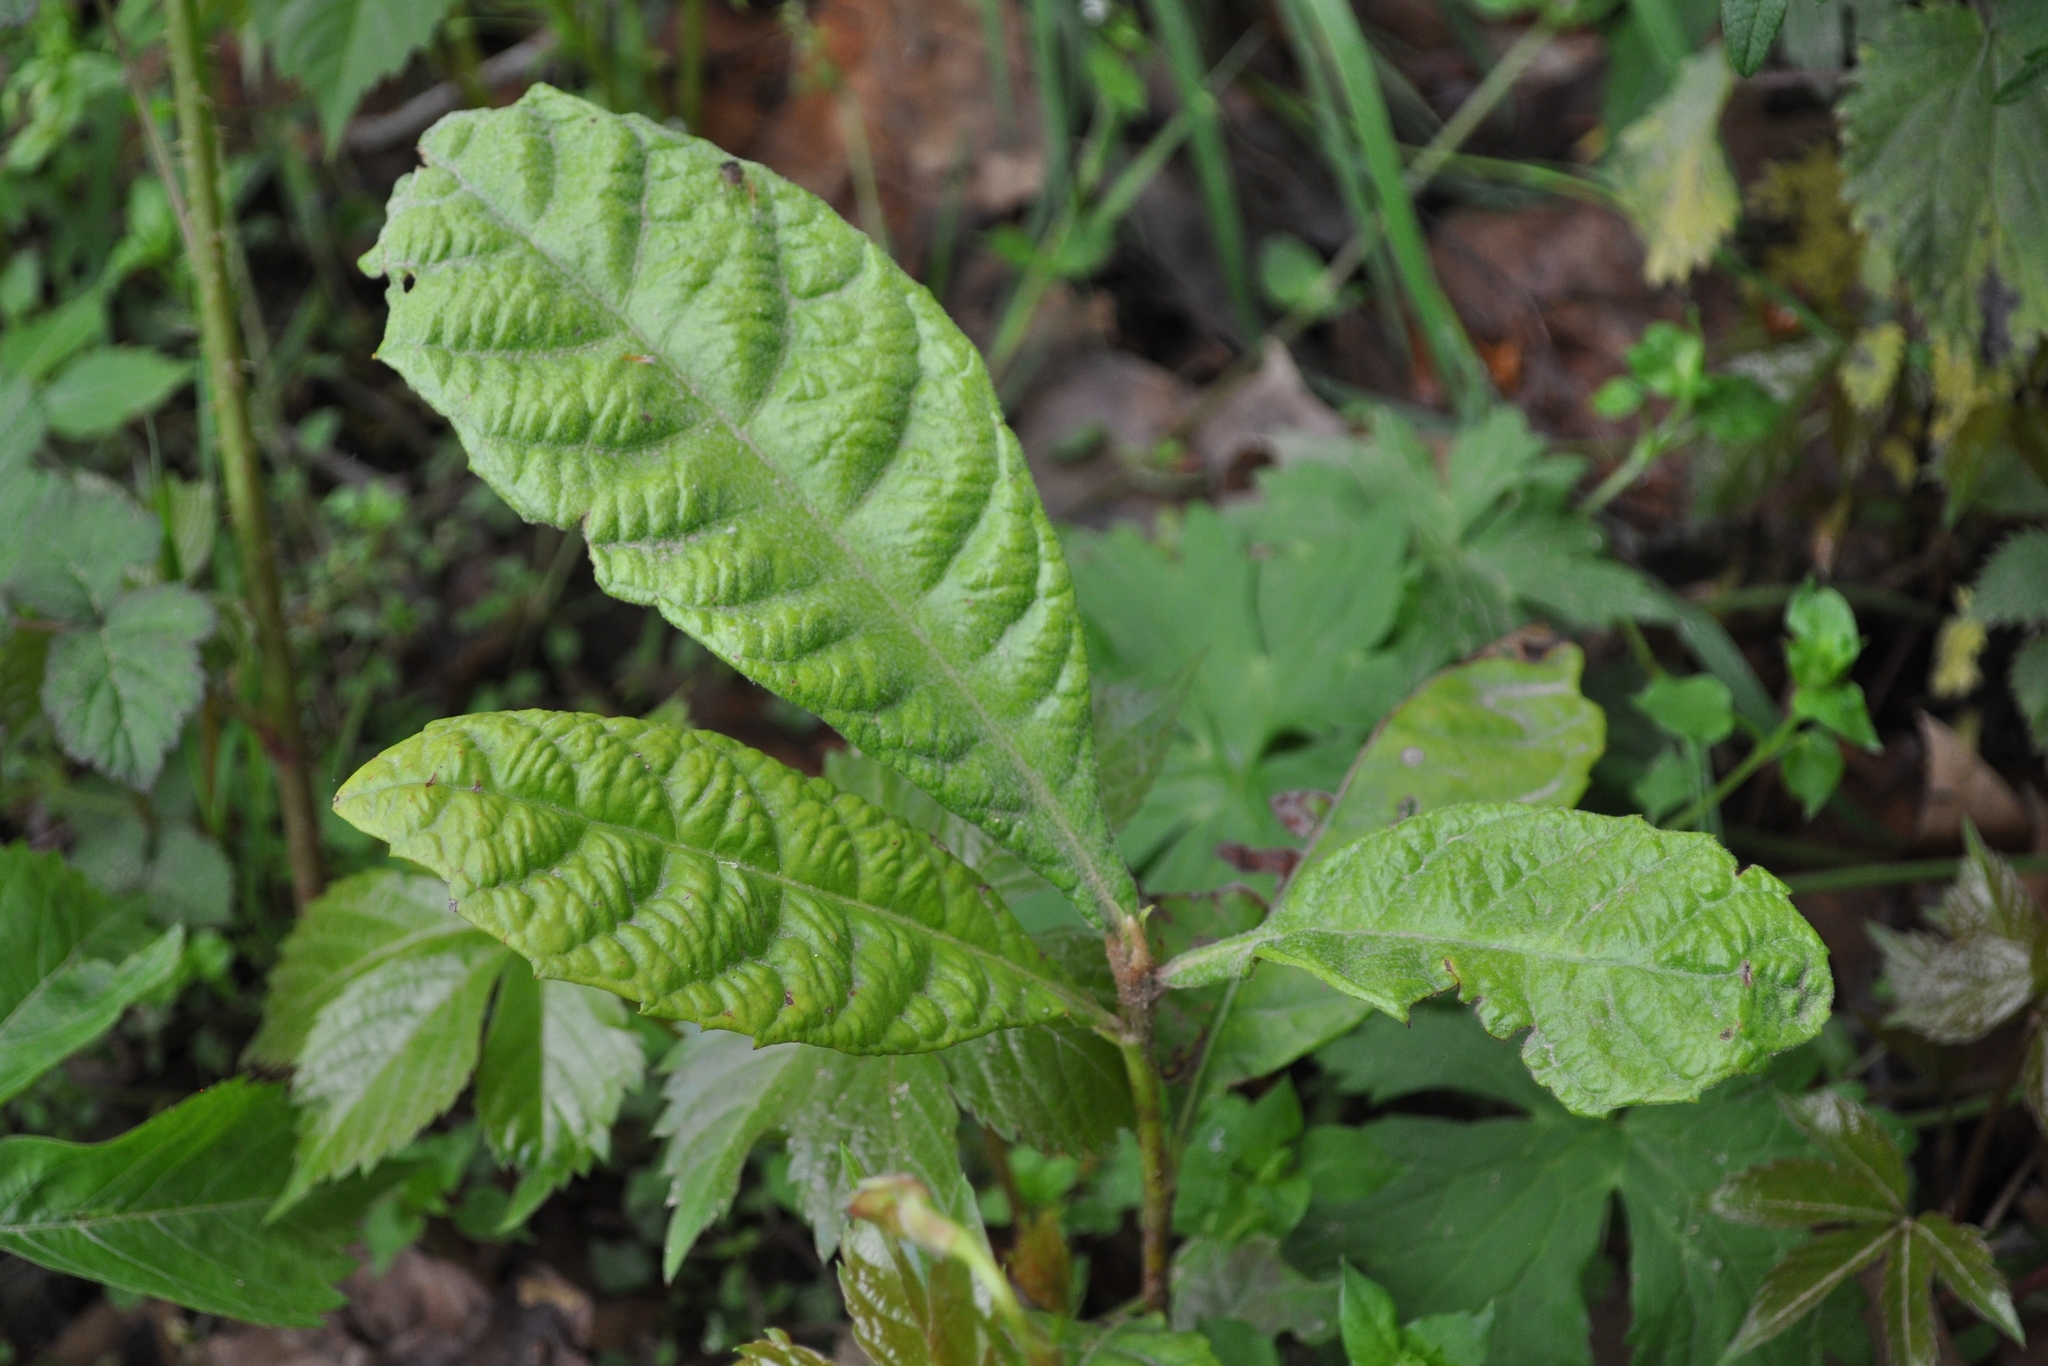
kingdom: Plantae
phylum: Tracheophyta
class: Magnoliopsida
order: Rosales
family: Rosaceae
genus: Rhaphiolepis
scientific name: Rhaphiolepis bibas
